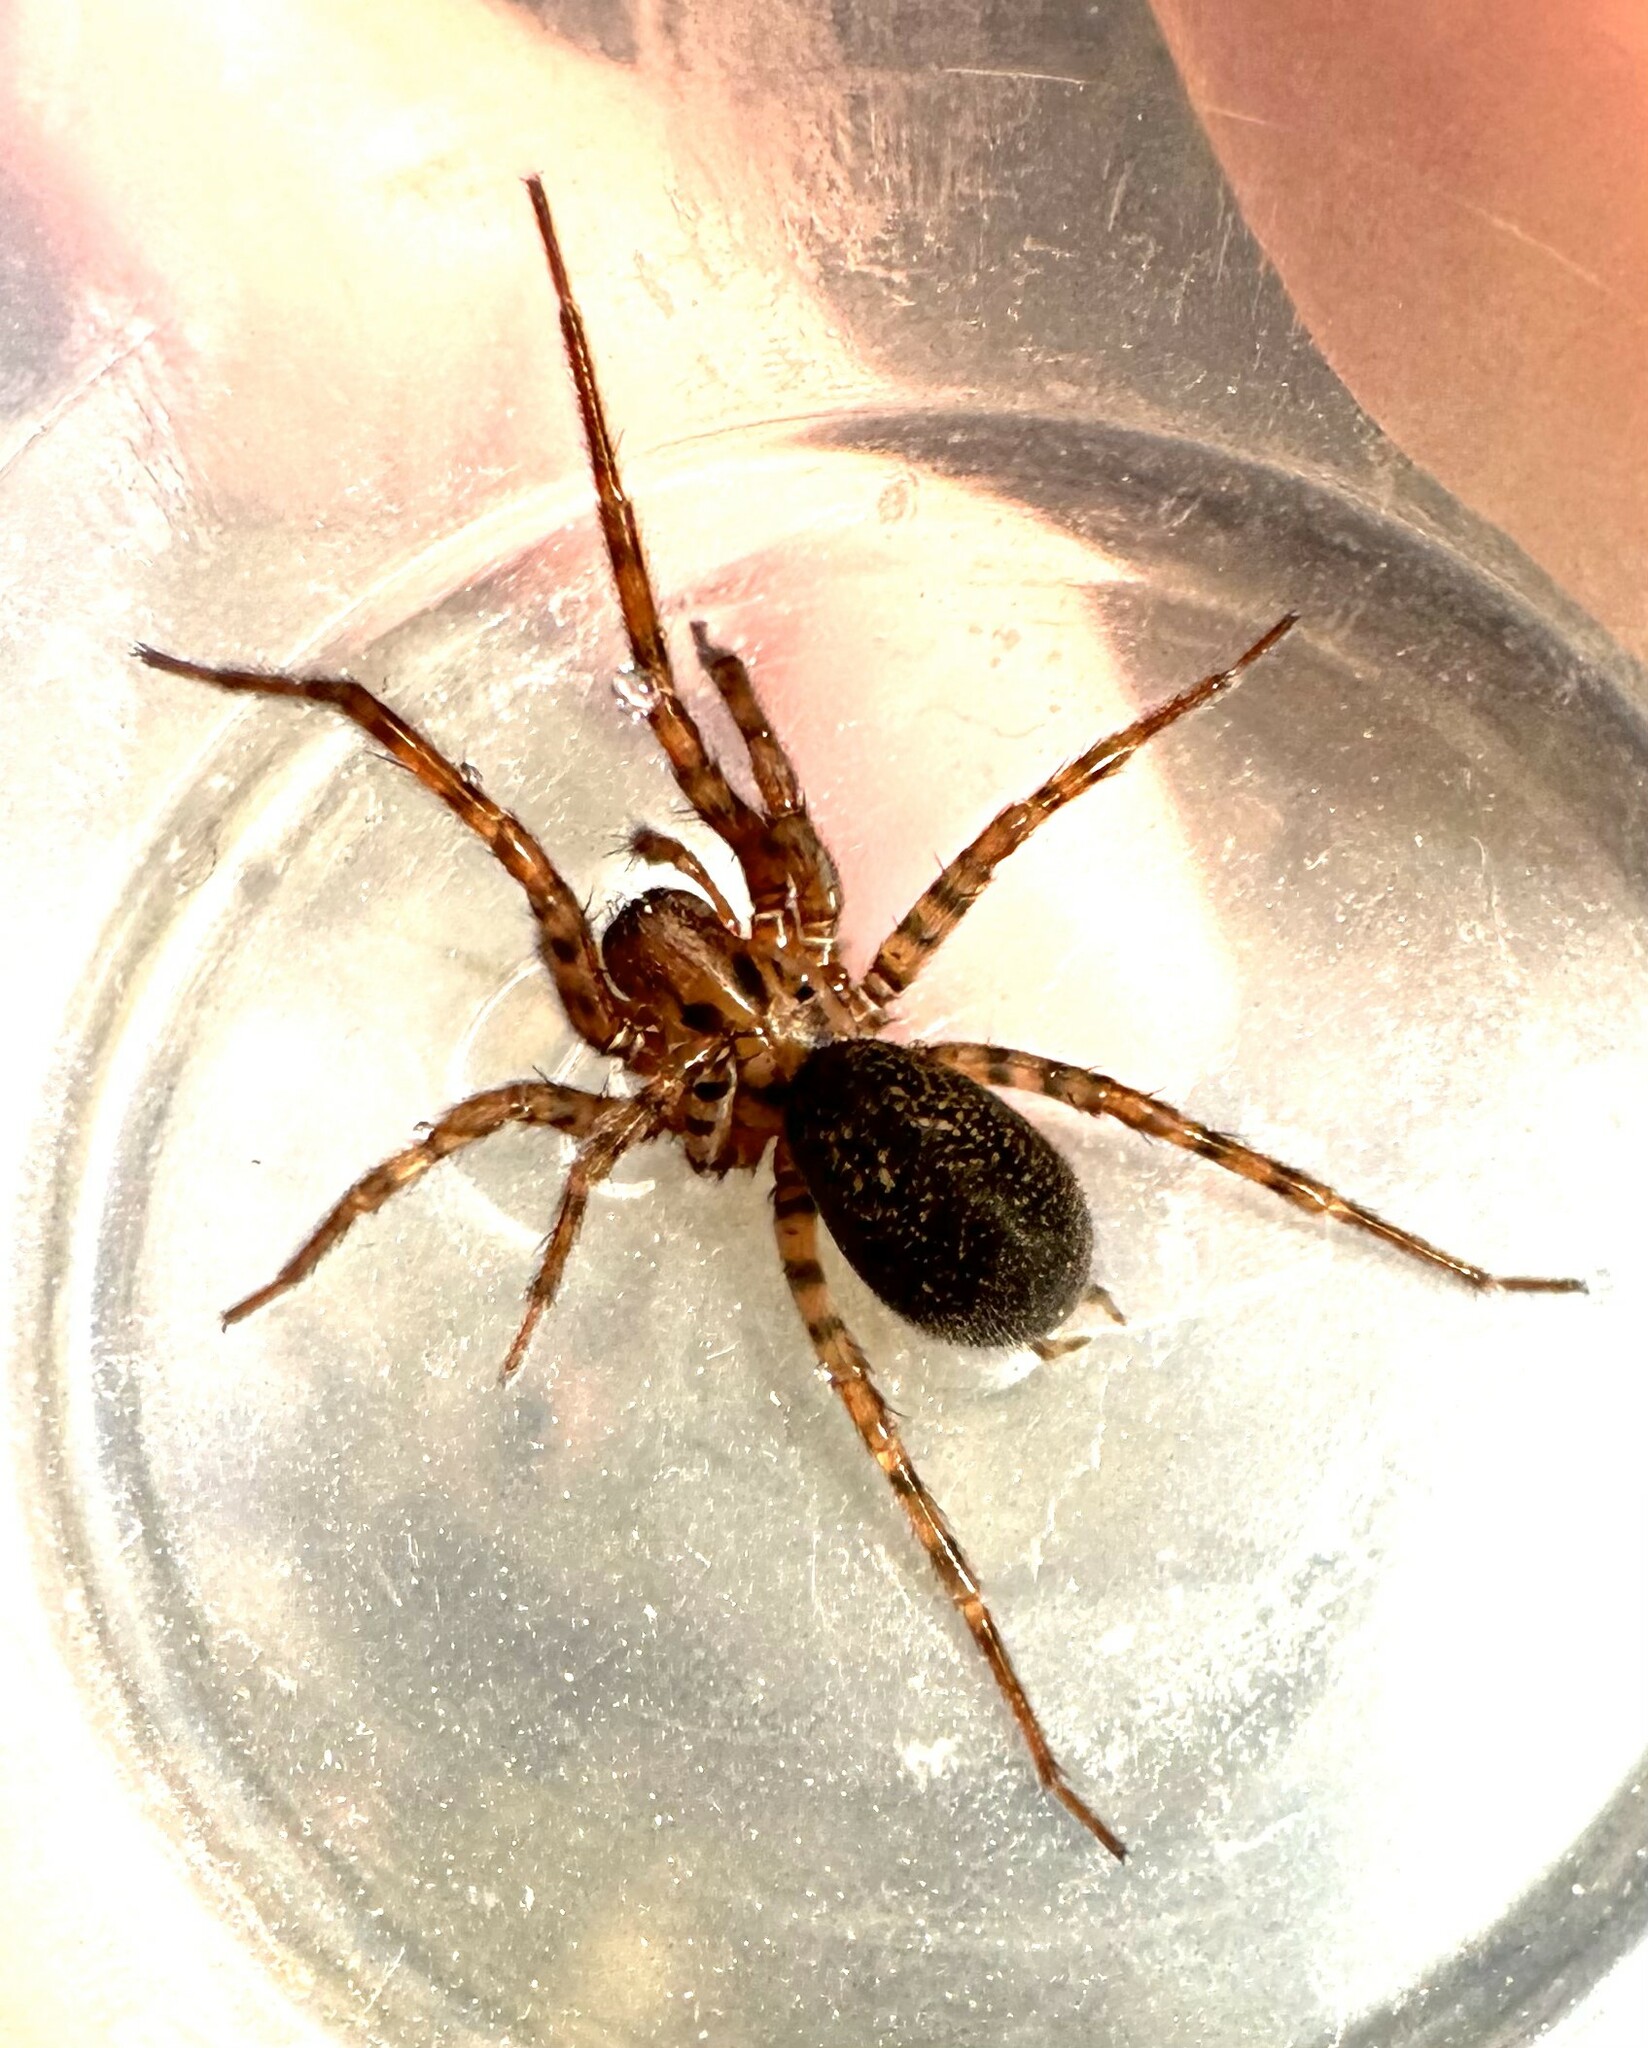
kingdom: Animalia
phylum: Arthropoda
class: Arachnida
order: Araneae
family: Agelenidae
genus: Coras
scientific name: Coras
